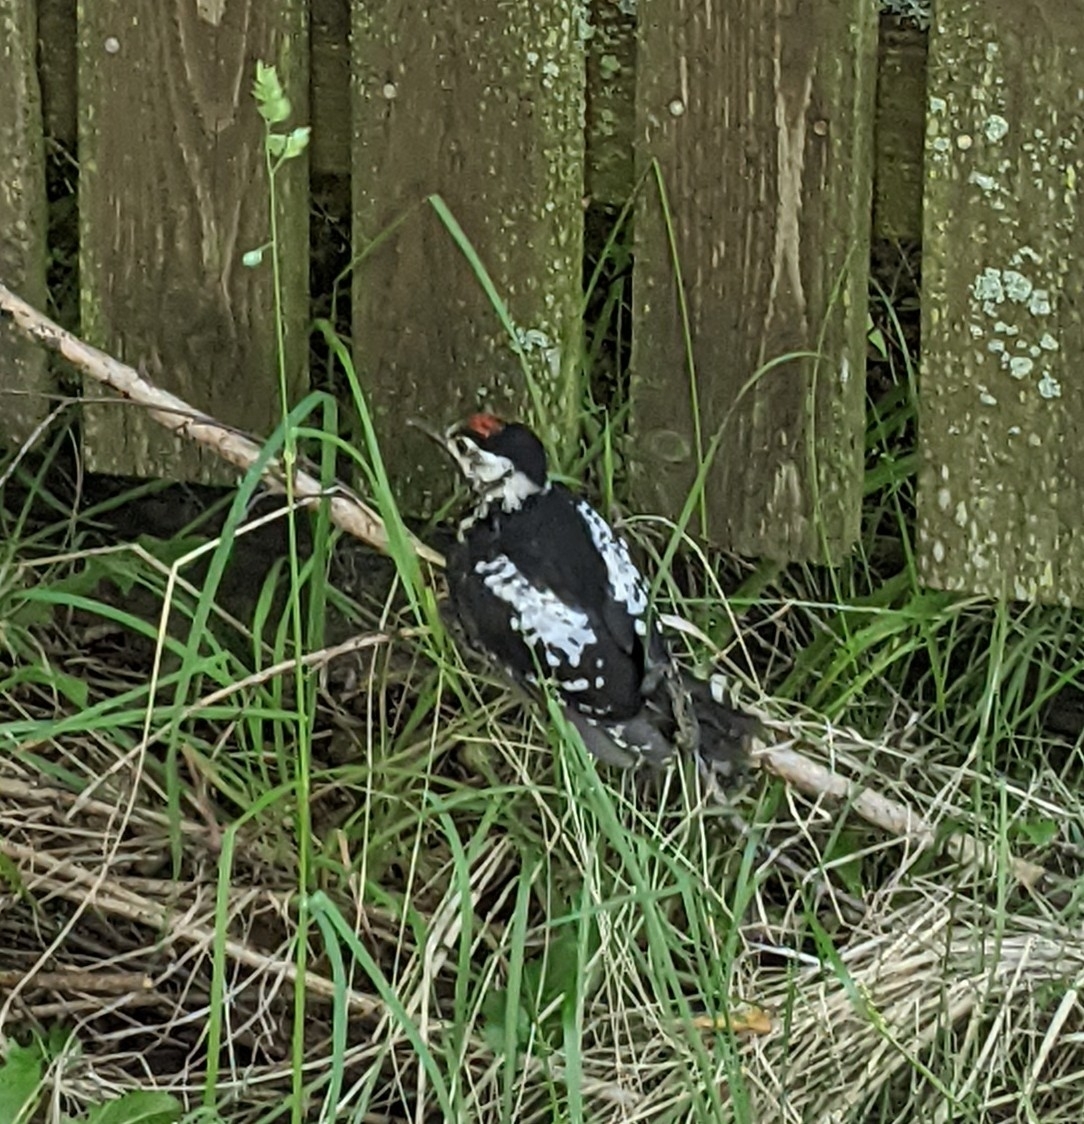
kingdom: Animalia
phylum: Chordata
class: Aves
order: Piciformes
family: Picidae
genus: Dendrocopos
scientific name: Dendrocopos major
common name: Great spotted woodpecker
